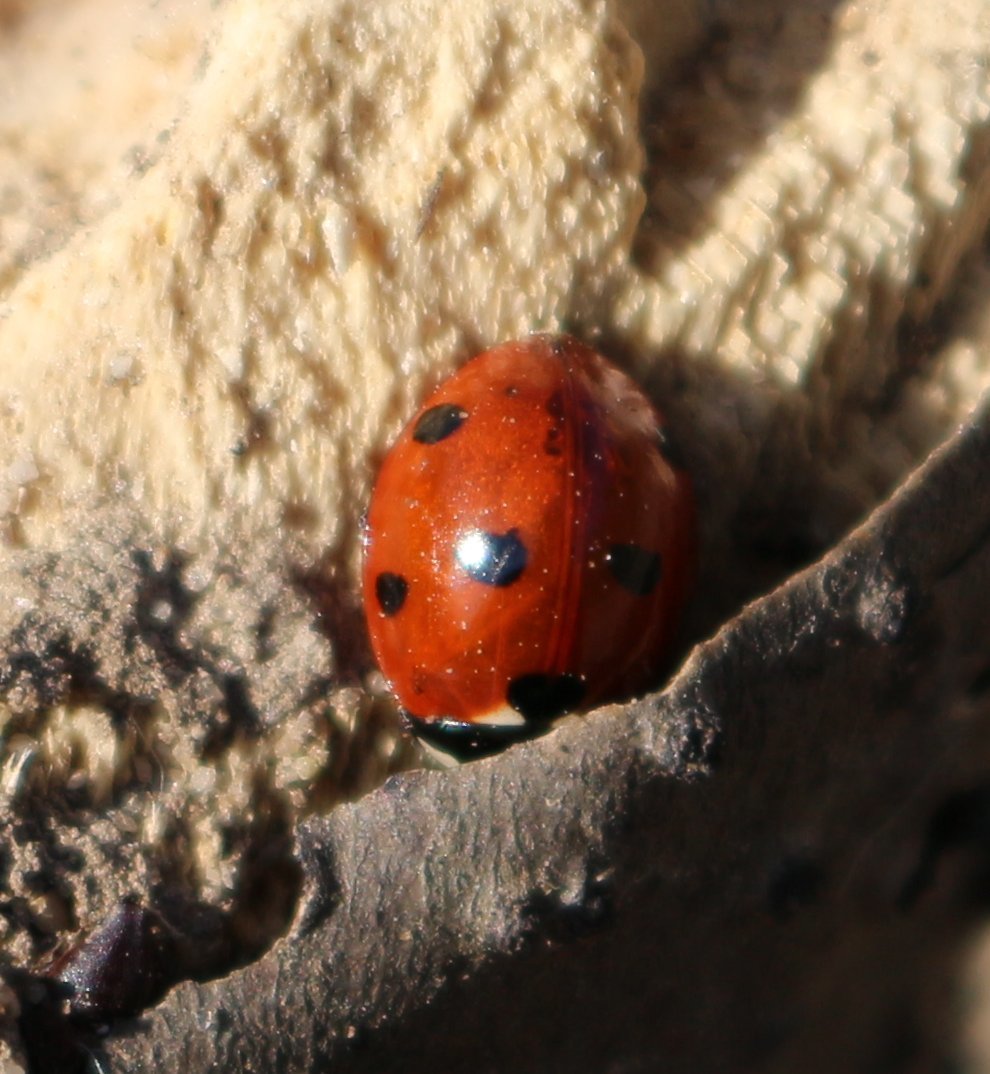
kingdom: Animalia
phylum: Arthropoda
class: Insecta
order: Coleoptera
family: Coccinellidae
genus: Coccinella
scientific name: Coccinella septempunctata
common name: Sevenspotted lady beetle
